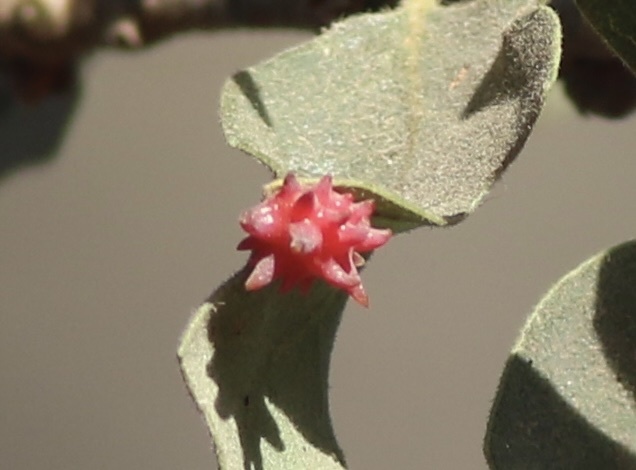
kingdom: Animalia
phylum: Arthropoda
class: Insecta
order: Hymenoptera
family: Cynipidae
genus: Cynips
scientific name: Cynips
